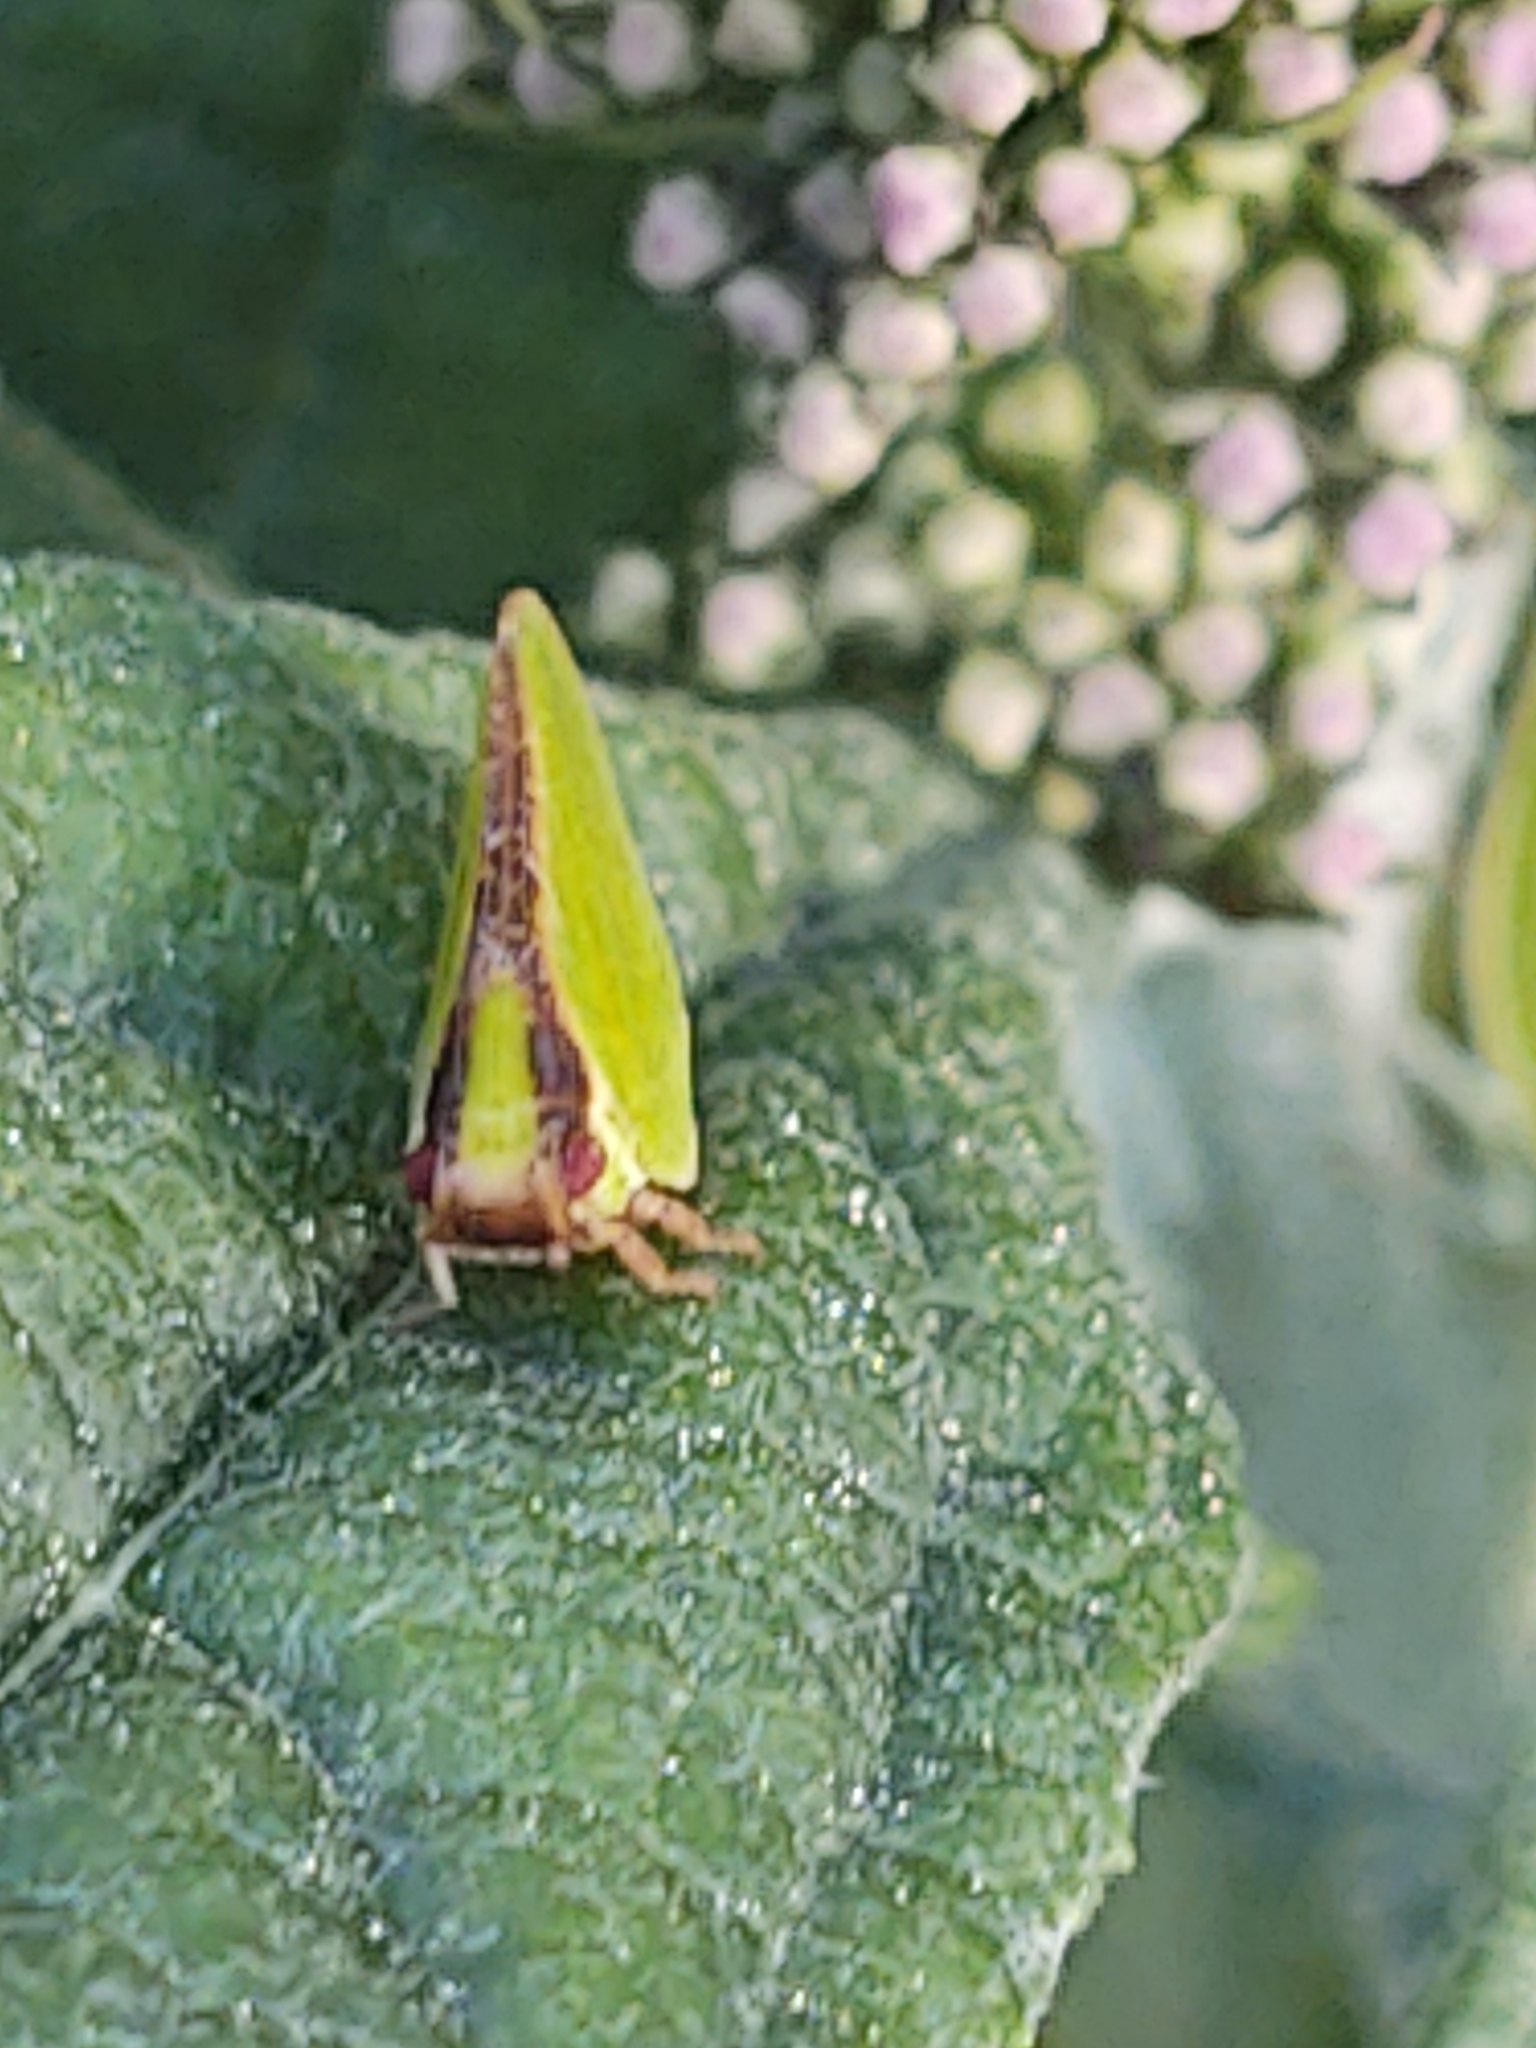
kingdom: Animalia
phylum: Arthropoda
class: Insecta
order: Hemiptera
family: Acanaloniidae
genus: Acanalonia
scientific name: Acanalonia bivittata
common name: Two-striped planthopper
